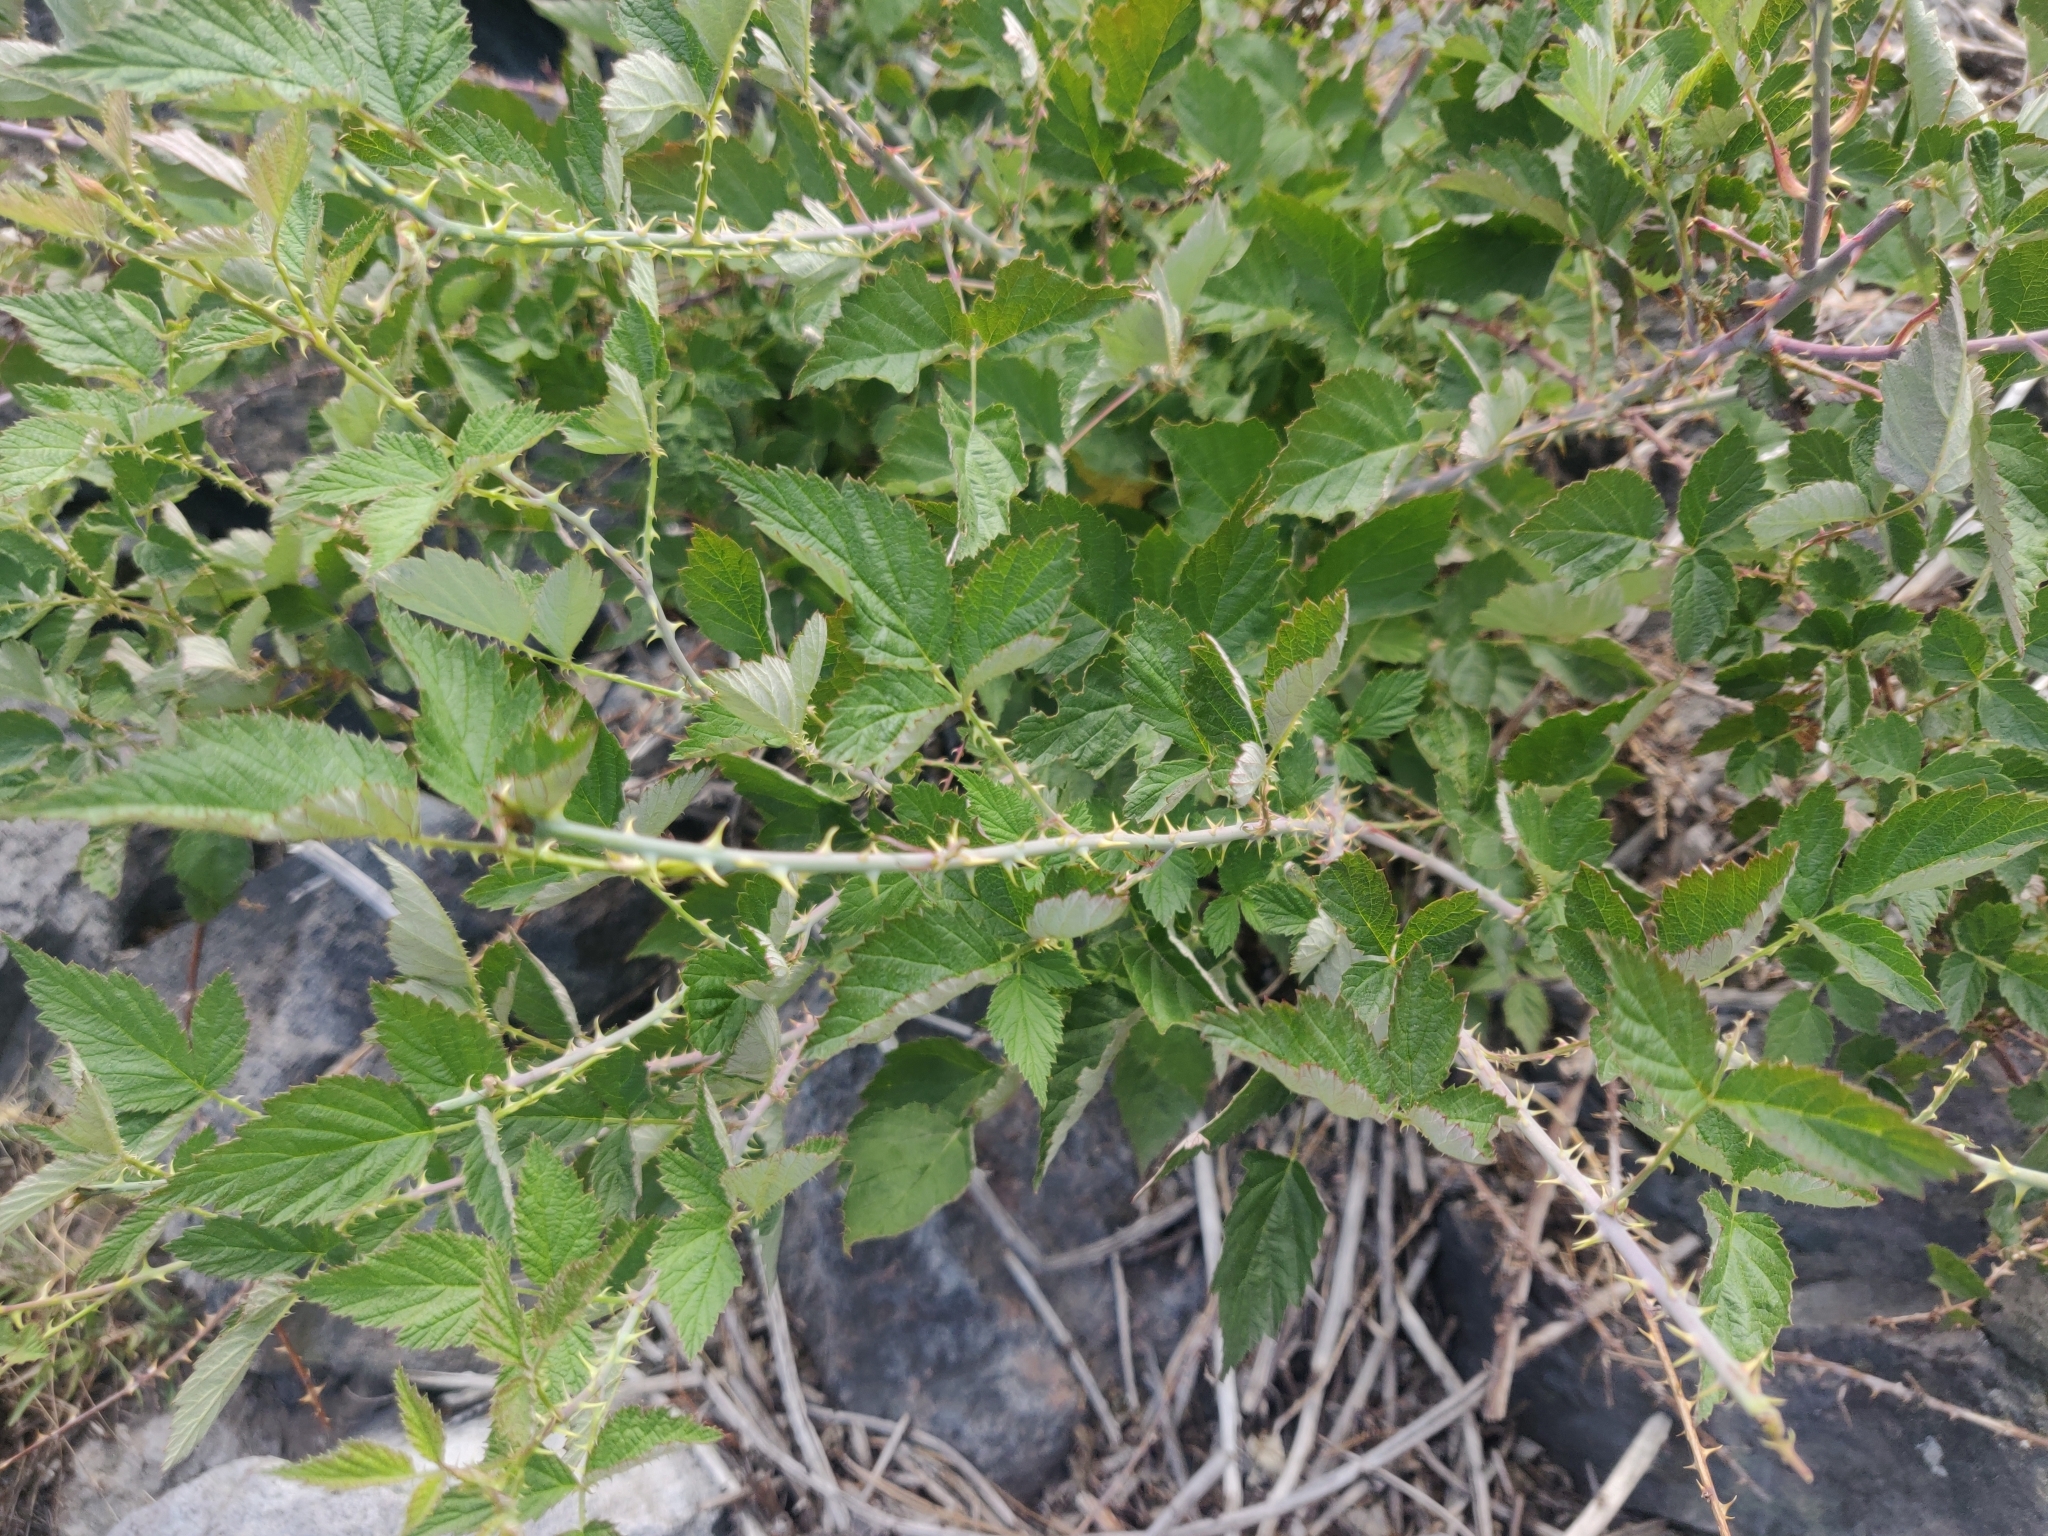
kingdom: Plantae
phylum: Tracheophyta
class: Magnoliopsida
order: Rosales
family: Rosaceae
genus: Rubus
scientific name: Rubus leucodermis
